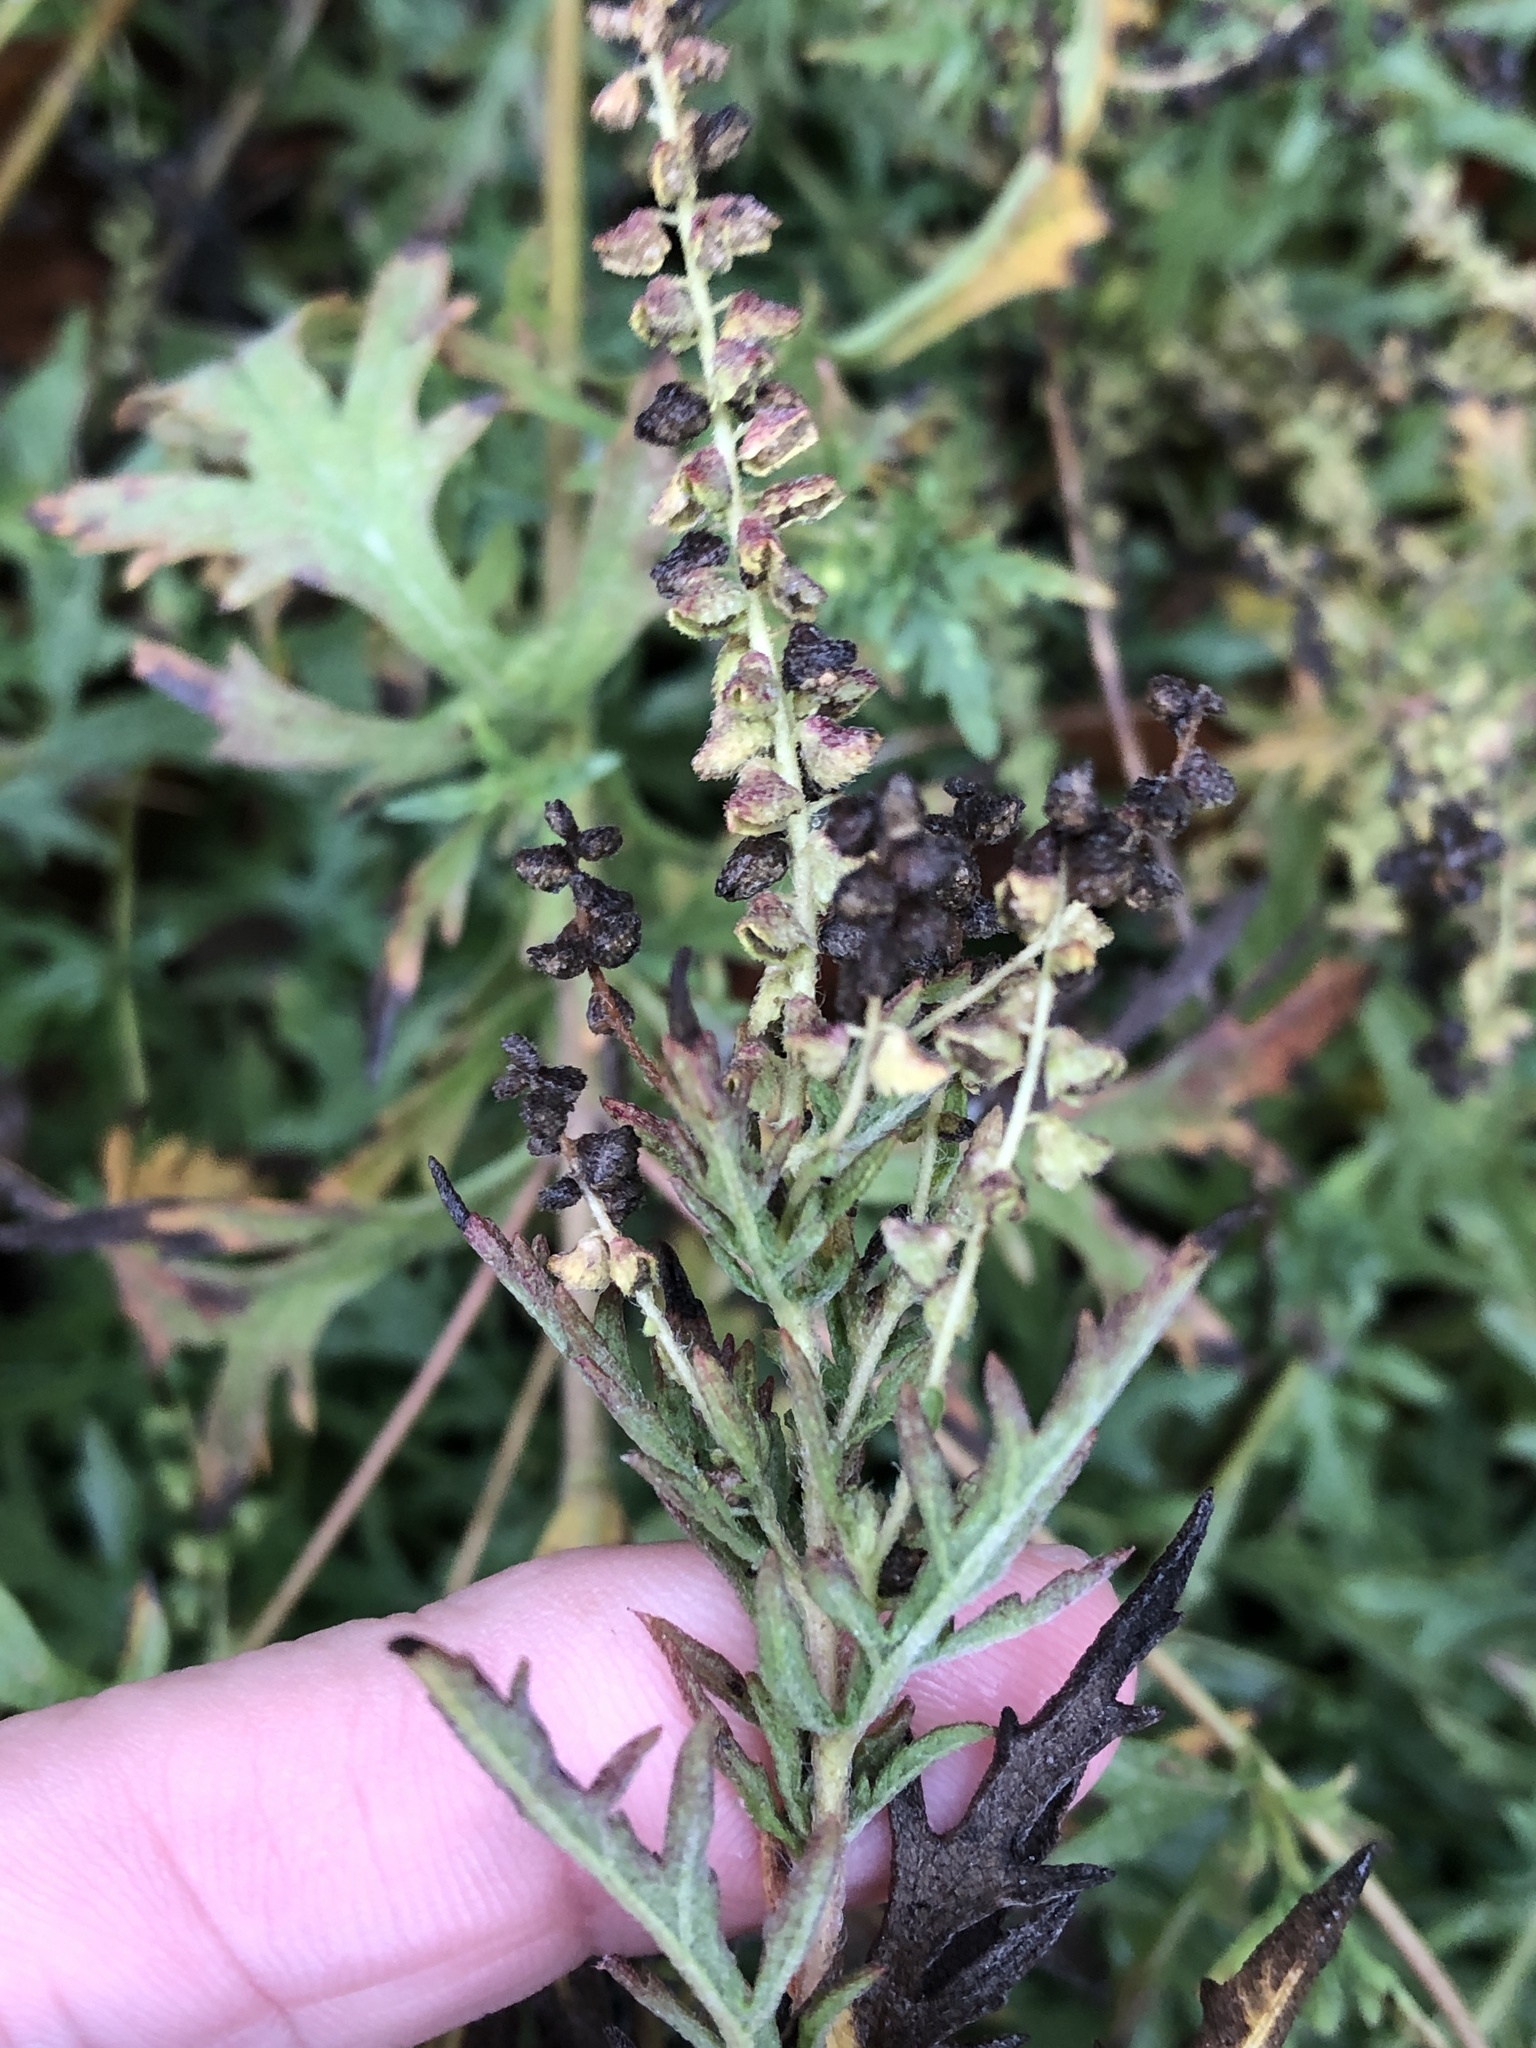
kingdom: Plantae
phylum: Tracheophyta
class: Magnoliopsida
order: Asterales
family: Asteraceae
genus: Ambrosia
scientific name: Ambrosia psilostachya
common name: Perennial ragweed
